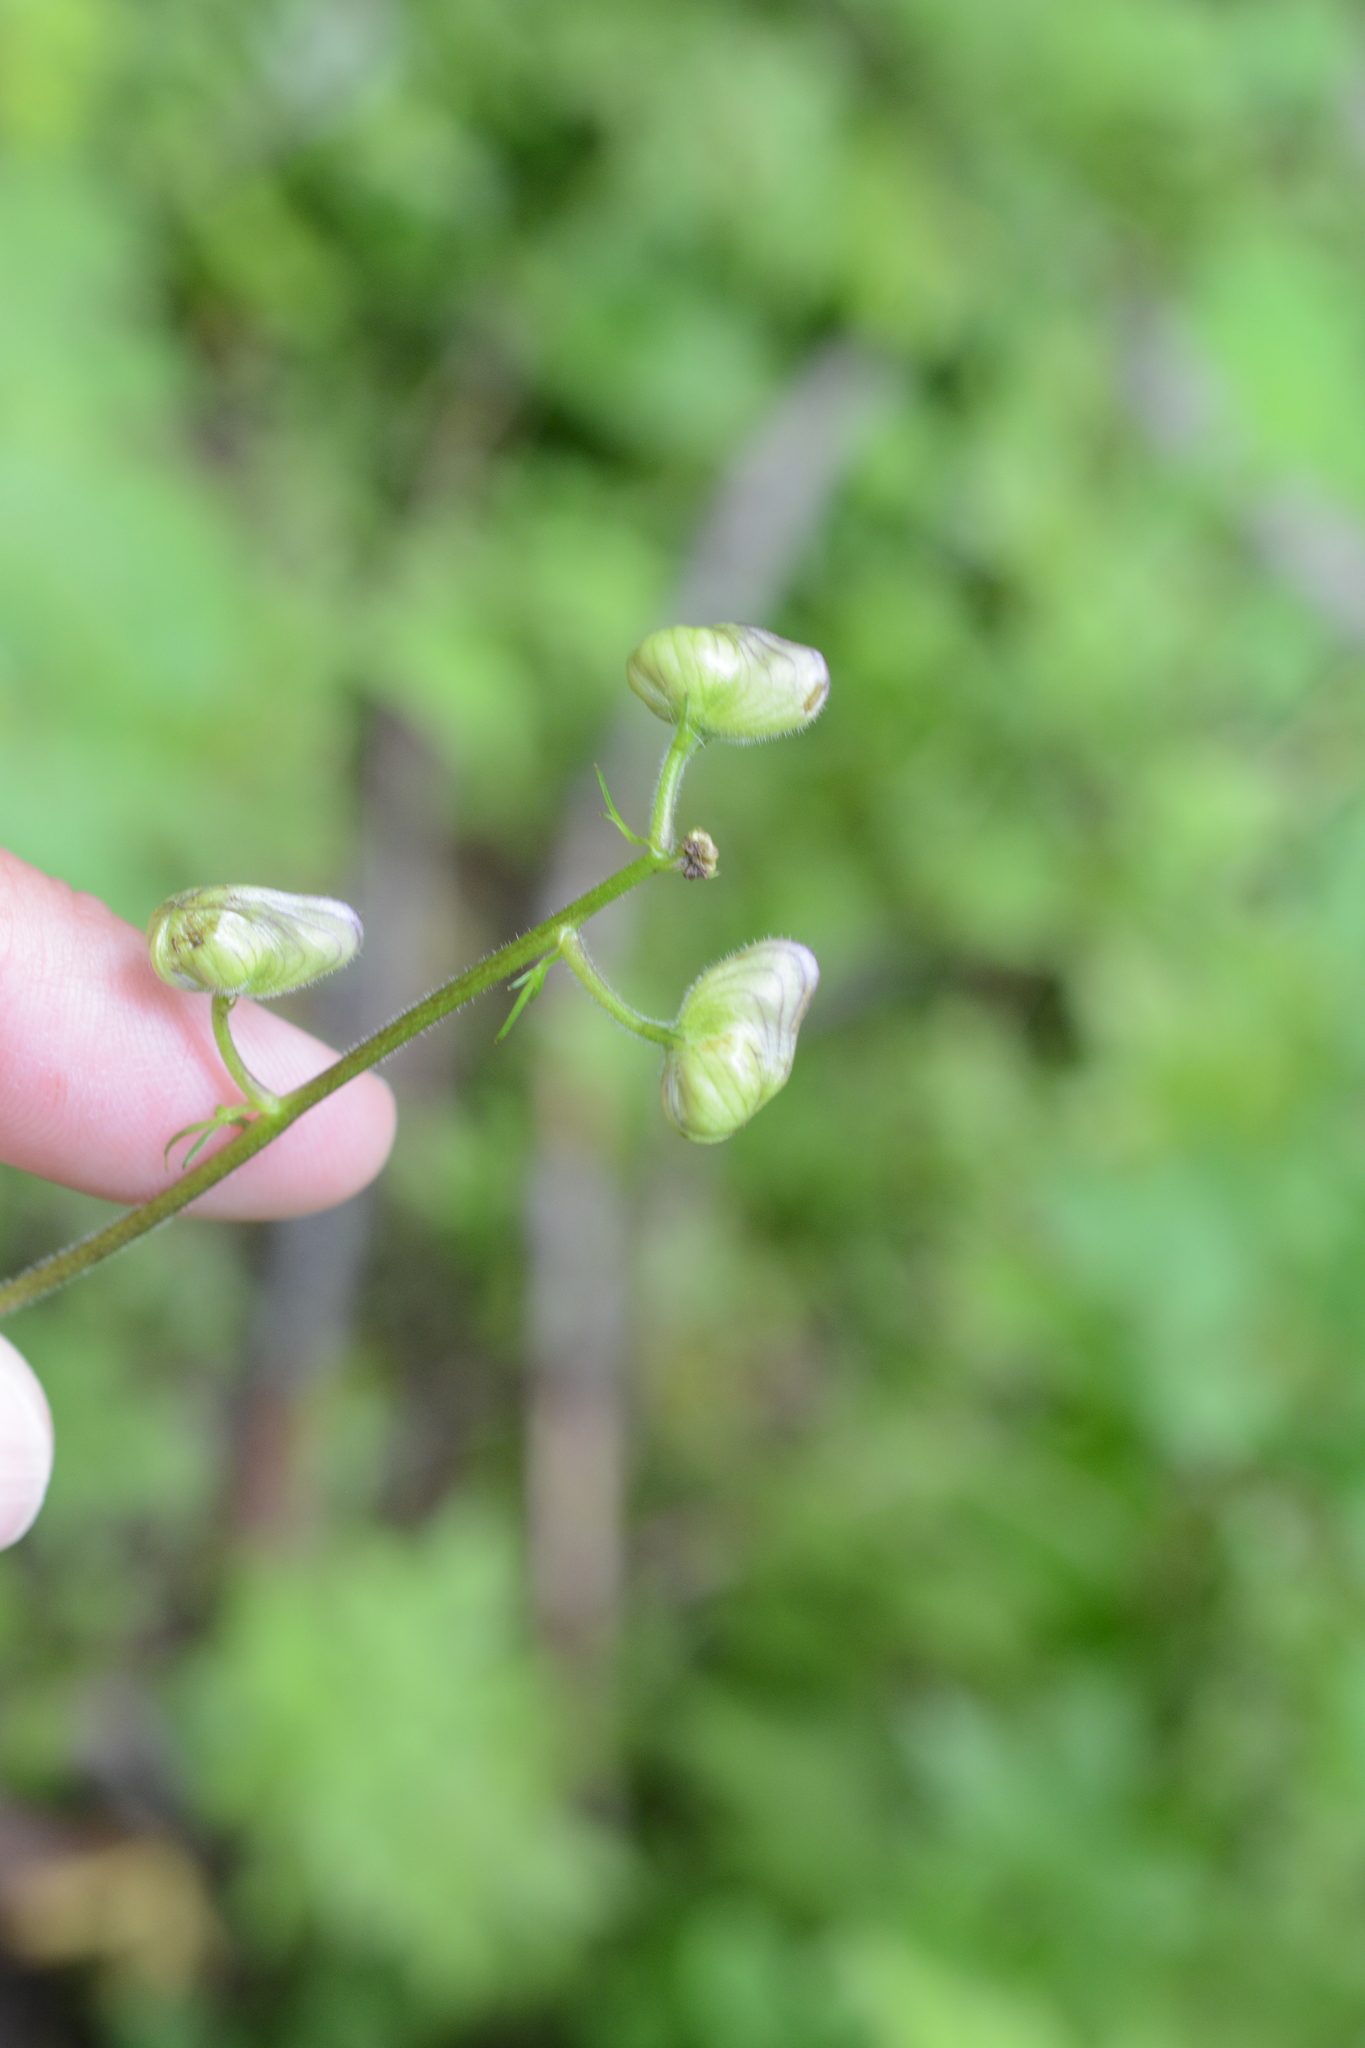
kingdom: Plantae
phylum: Tracheophyta
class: Magnoliopsida
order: Ranunculales
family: Ranunculaceae
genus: Aconitum
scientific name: Aconitum columbianum
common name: Columbia aconite
